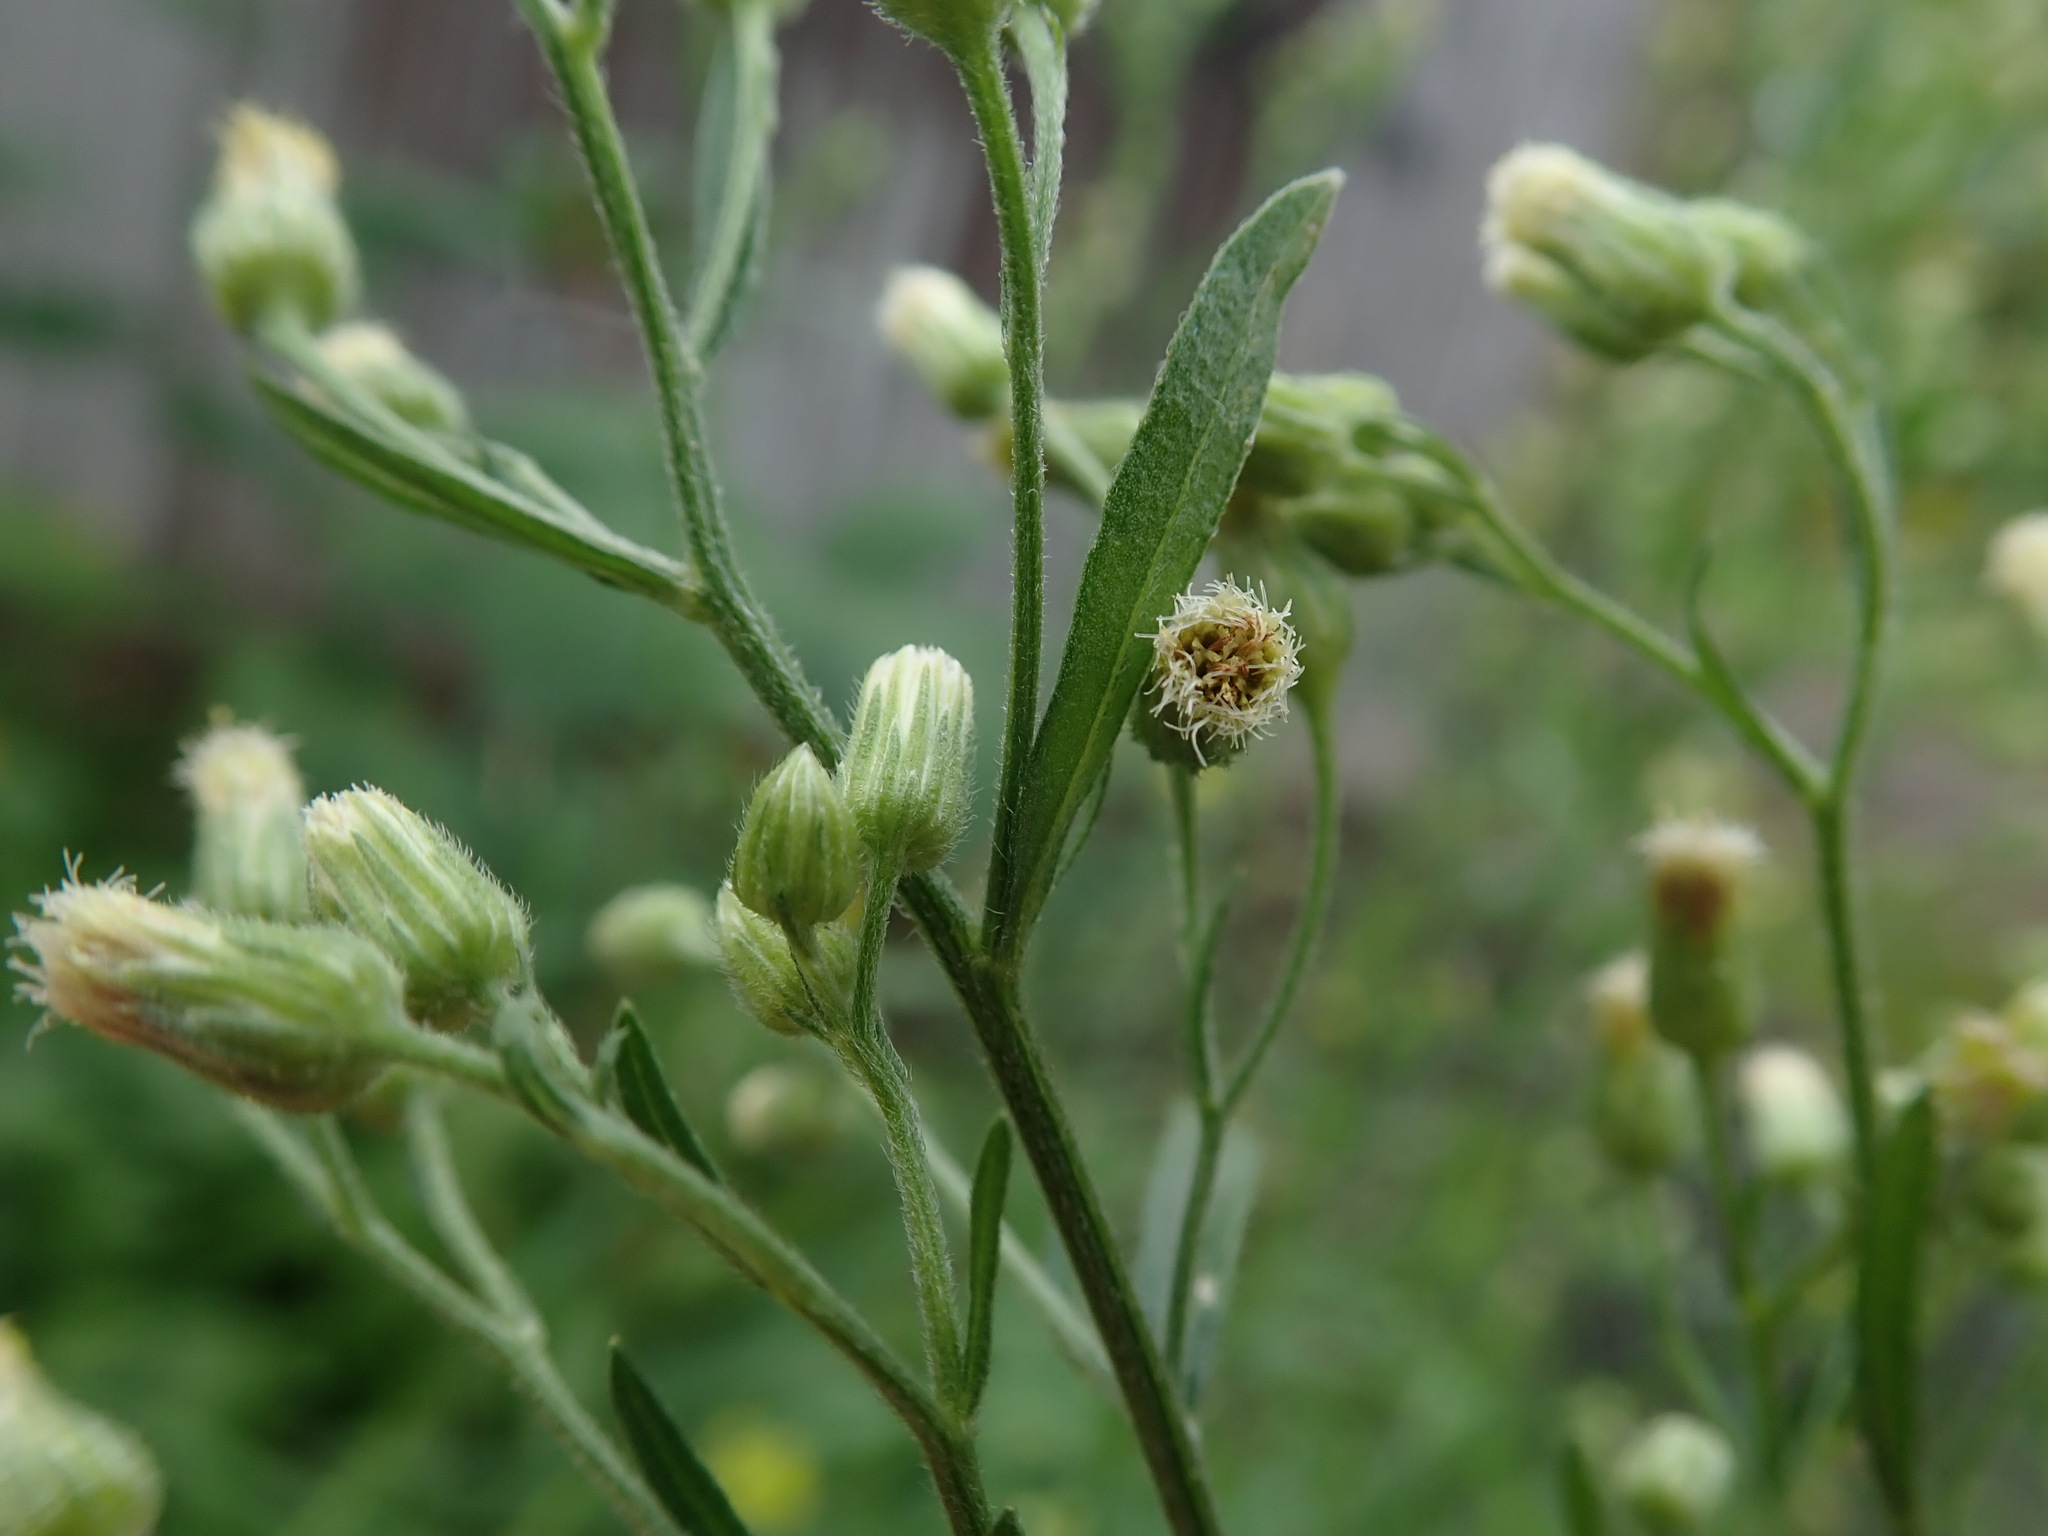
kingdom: Plantae
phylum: Tracheophyta
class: Magnoliopsida
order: Asterales
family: Asteraceae
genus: Erigeron
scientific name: Erigeron sumatrensis
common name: Daisy
